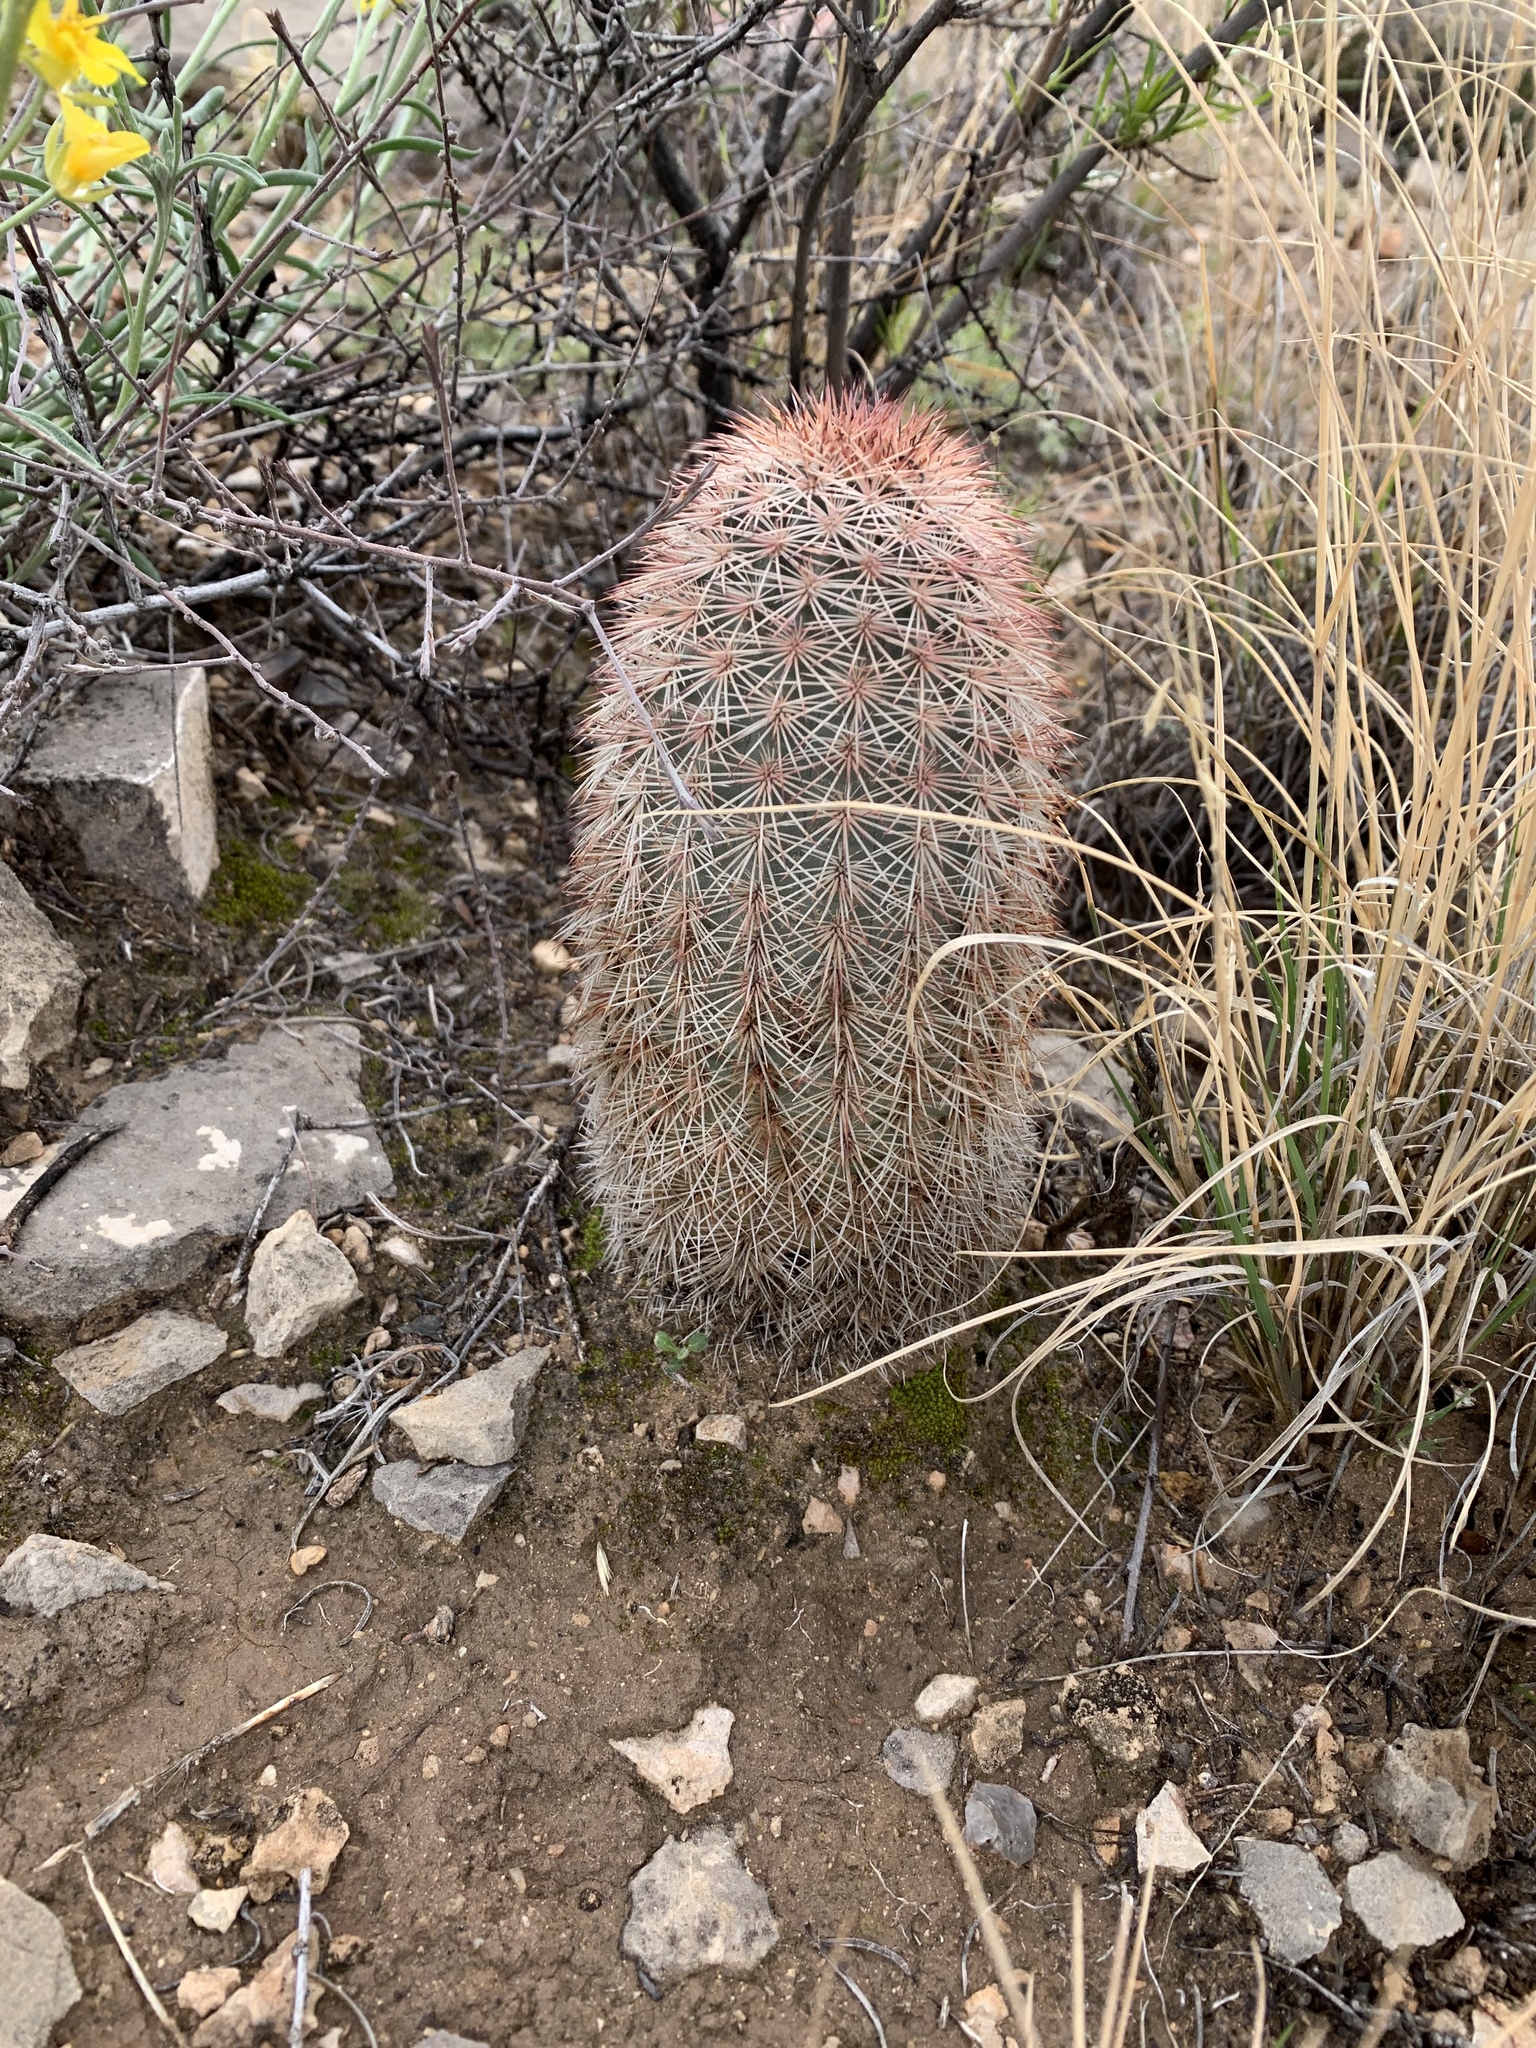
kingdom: Plantae
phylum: Tracheophyta
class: Magnoliopsida
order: Caryophyllales
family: Cactaceae
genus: Echinocereus
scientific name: Echinocereus dasyacanthus
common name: Spiny hedgehog cactus
